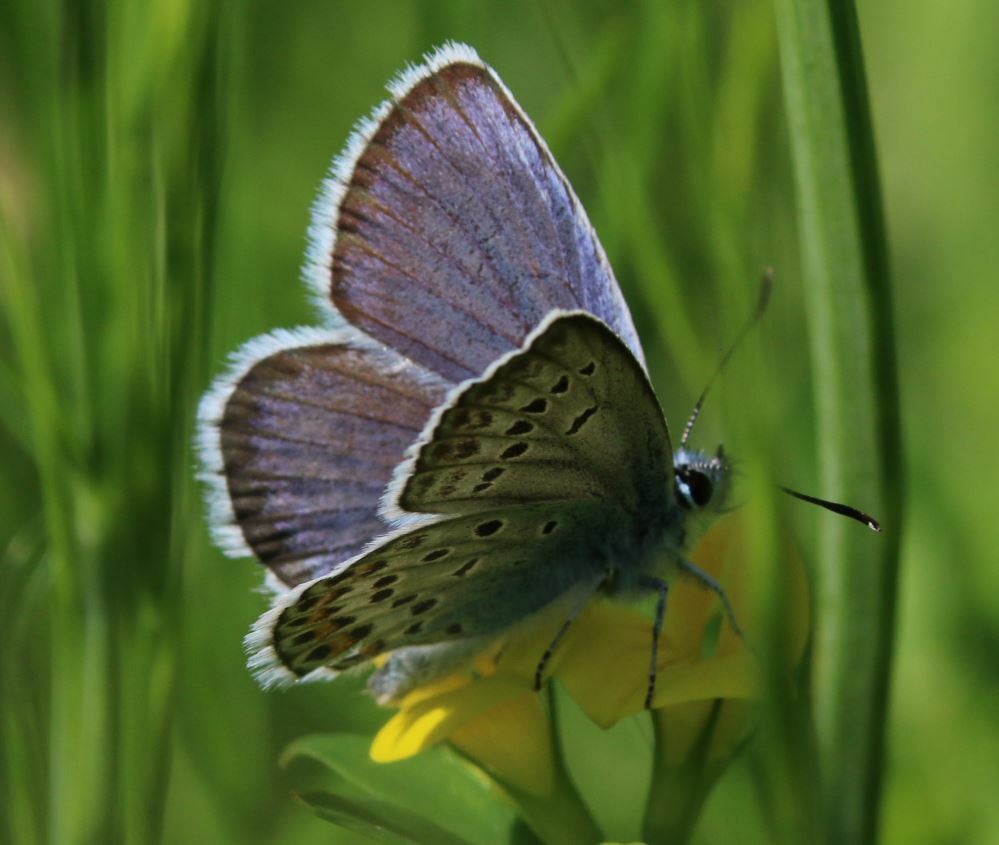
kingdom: Animalia
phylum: Arthropoda
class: Insecta
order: Lepidoptera
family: Lycaenidae
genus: Plebejus
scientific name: Plebejus argus
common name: Silver-studded blue
